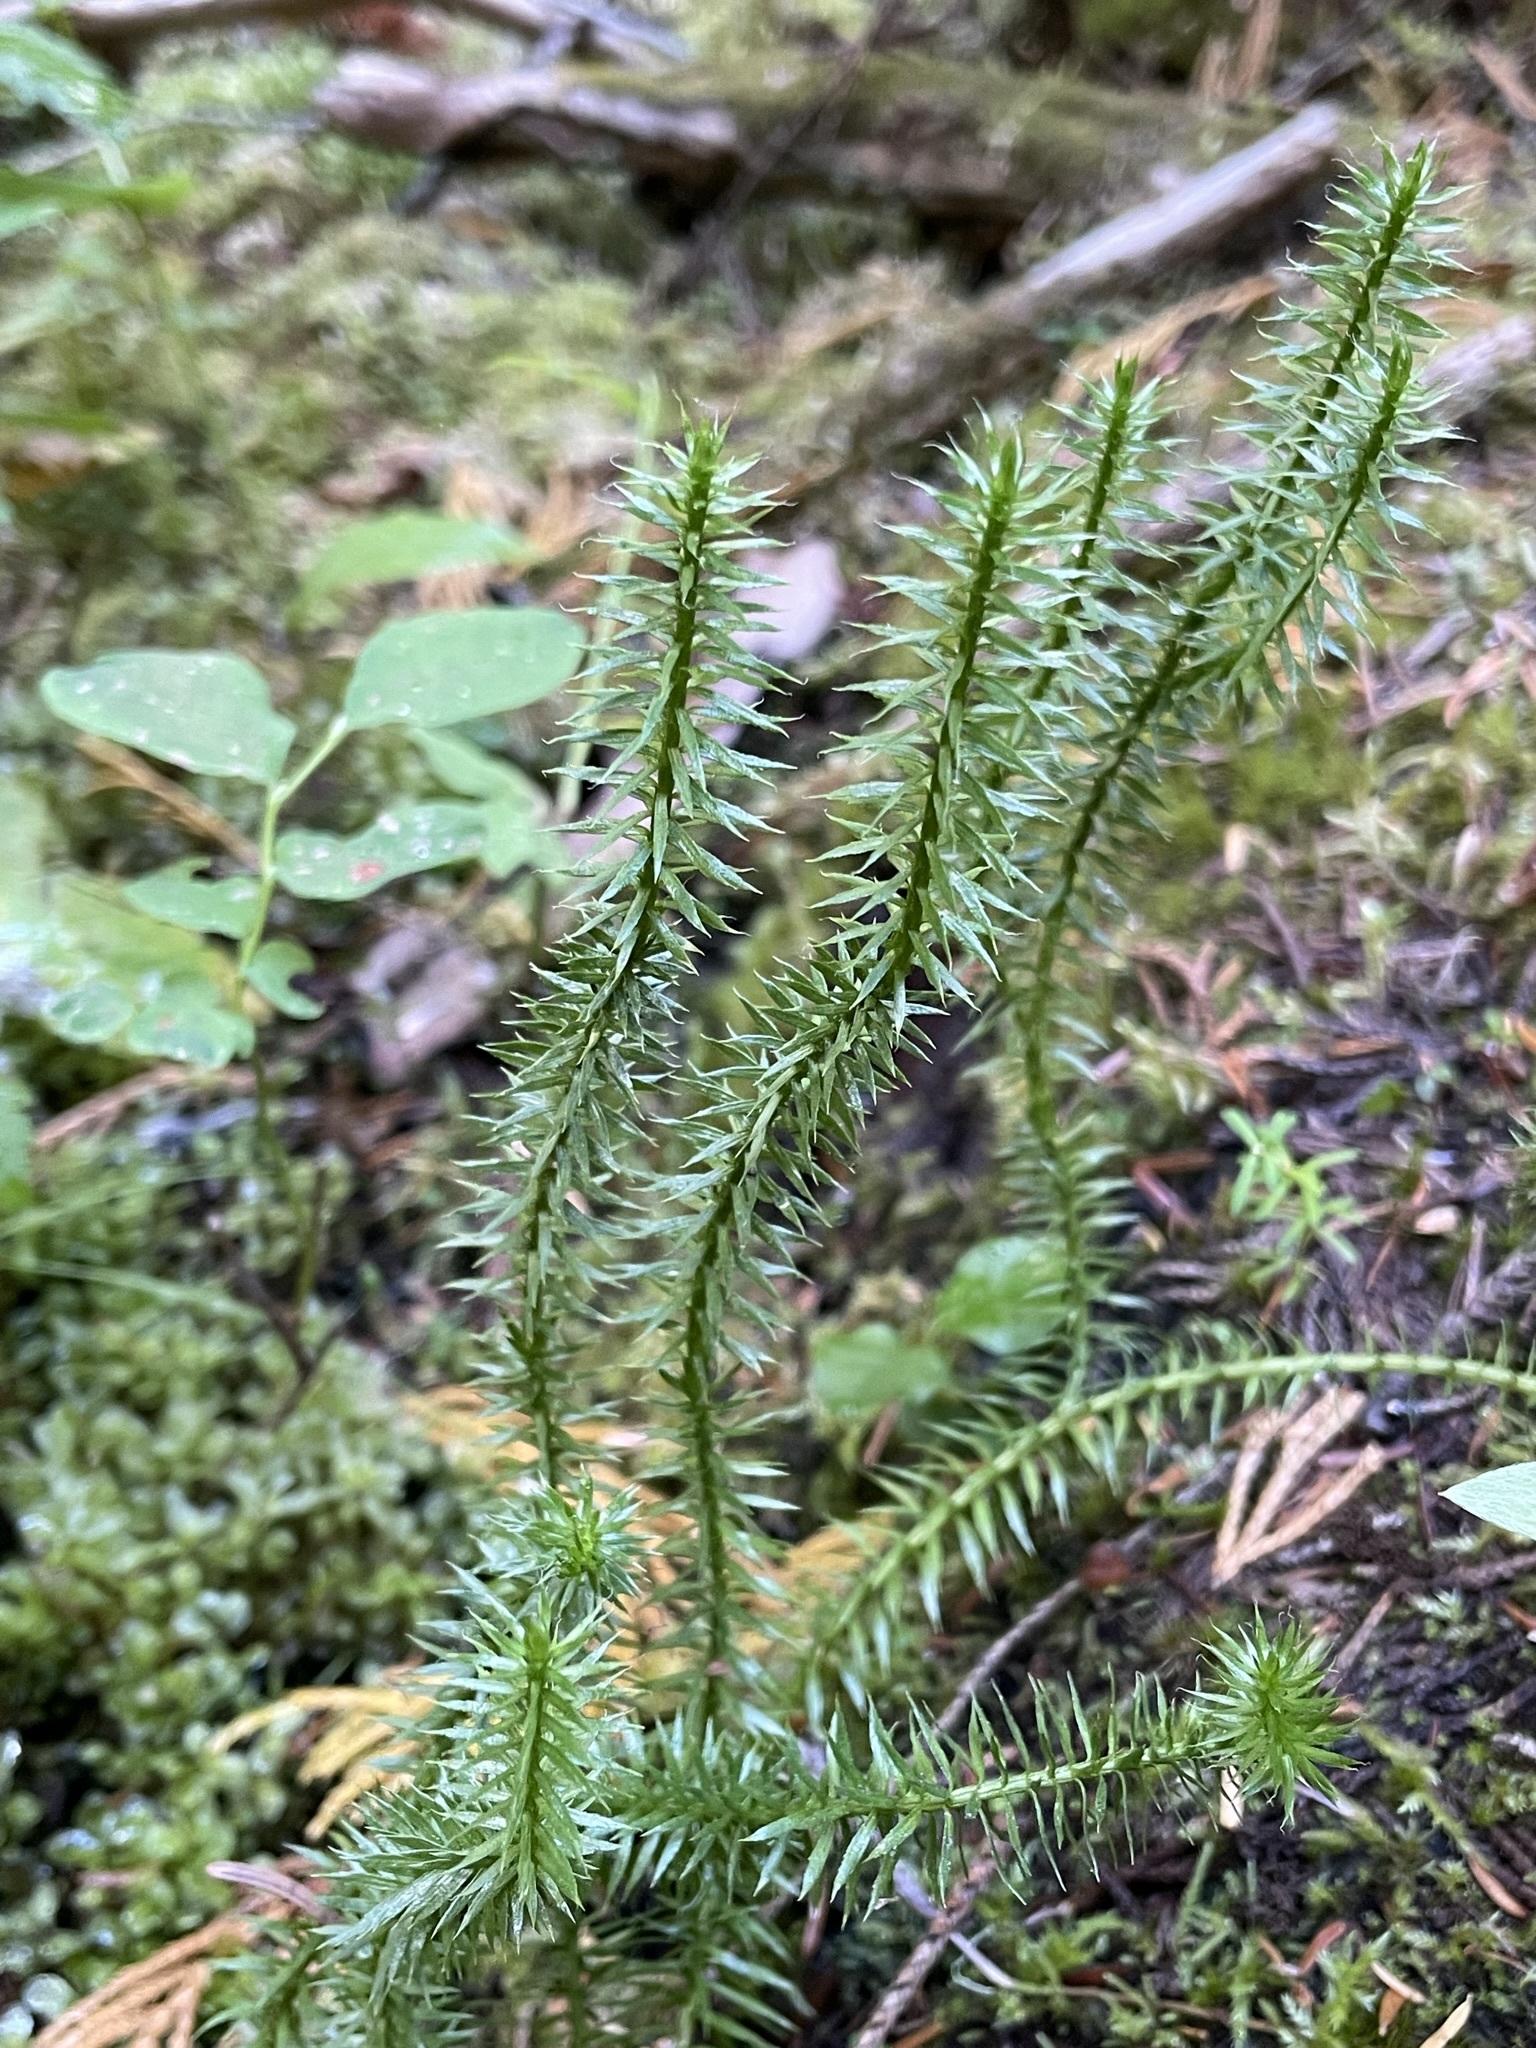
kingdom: Plantae
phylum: Tracheophyta
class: Lycopodiopsida
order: Lycopodiales
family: Lycopodiaceae
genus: Spinulum
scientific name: Spinulum annotinum
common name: Interrupted club-moss
